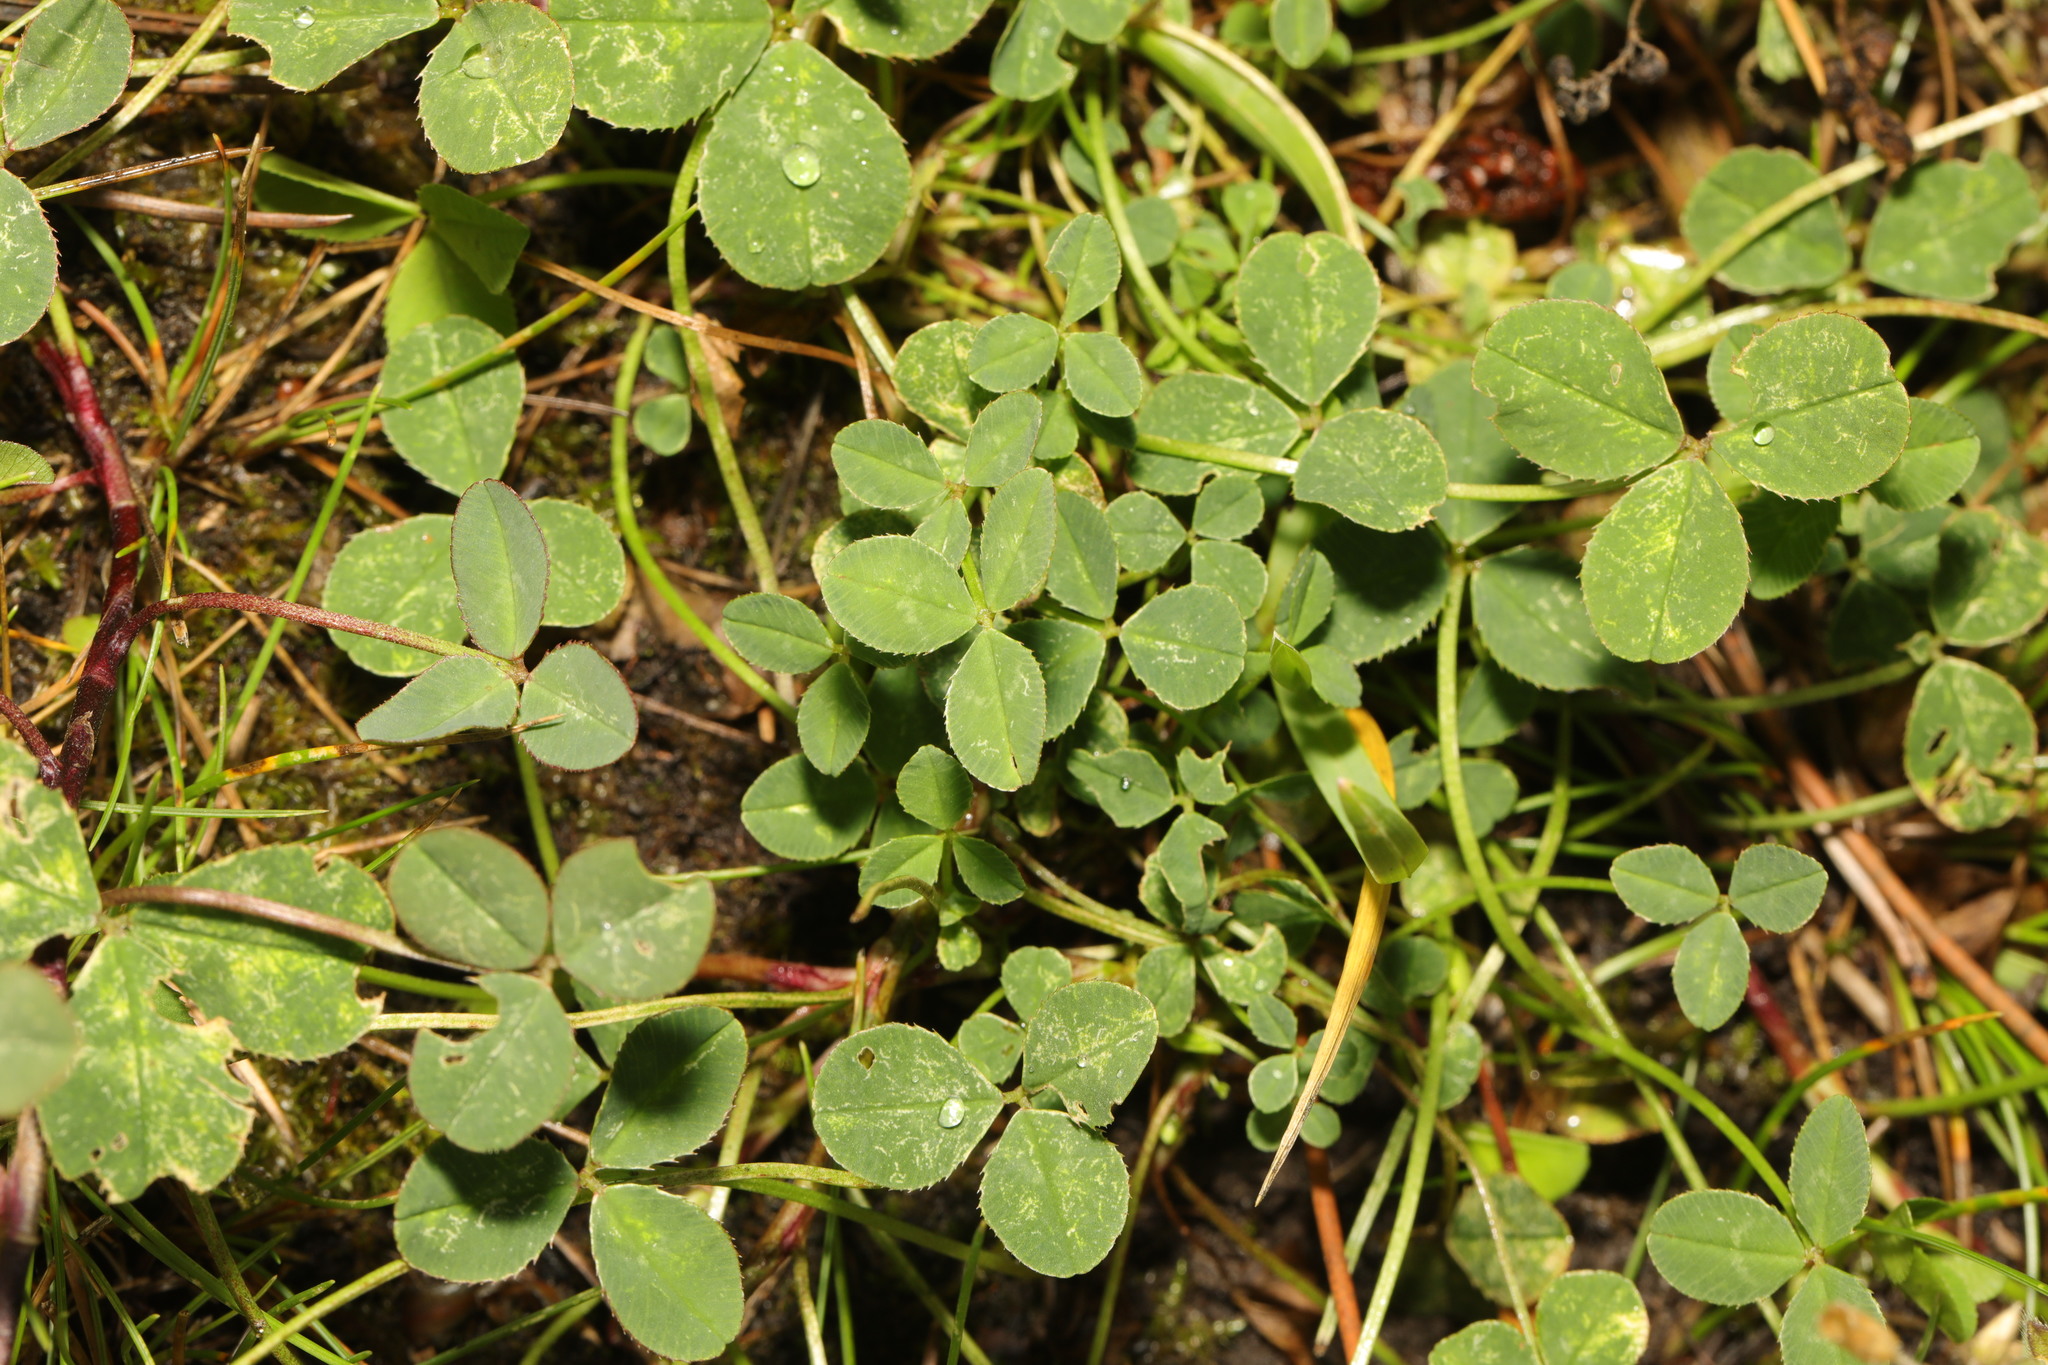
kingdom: Plantae
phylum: Tracheophyta
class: Magnoliopsida
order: Fabales
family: Fabaceae
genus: Trifolium
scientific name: Trifolium repens
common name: White clover
